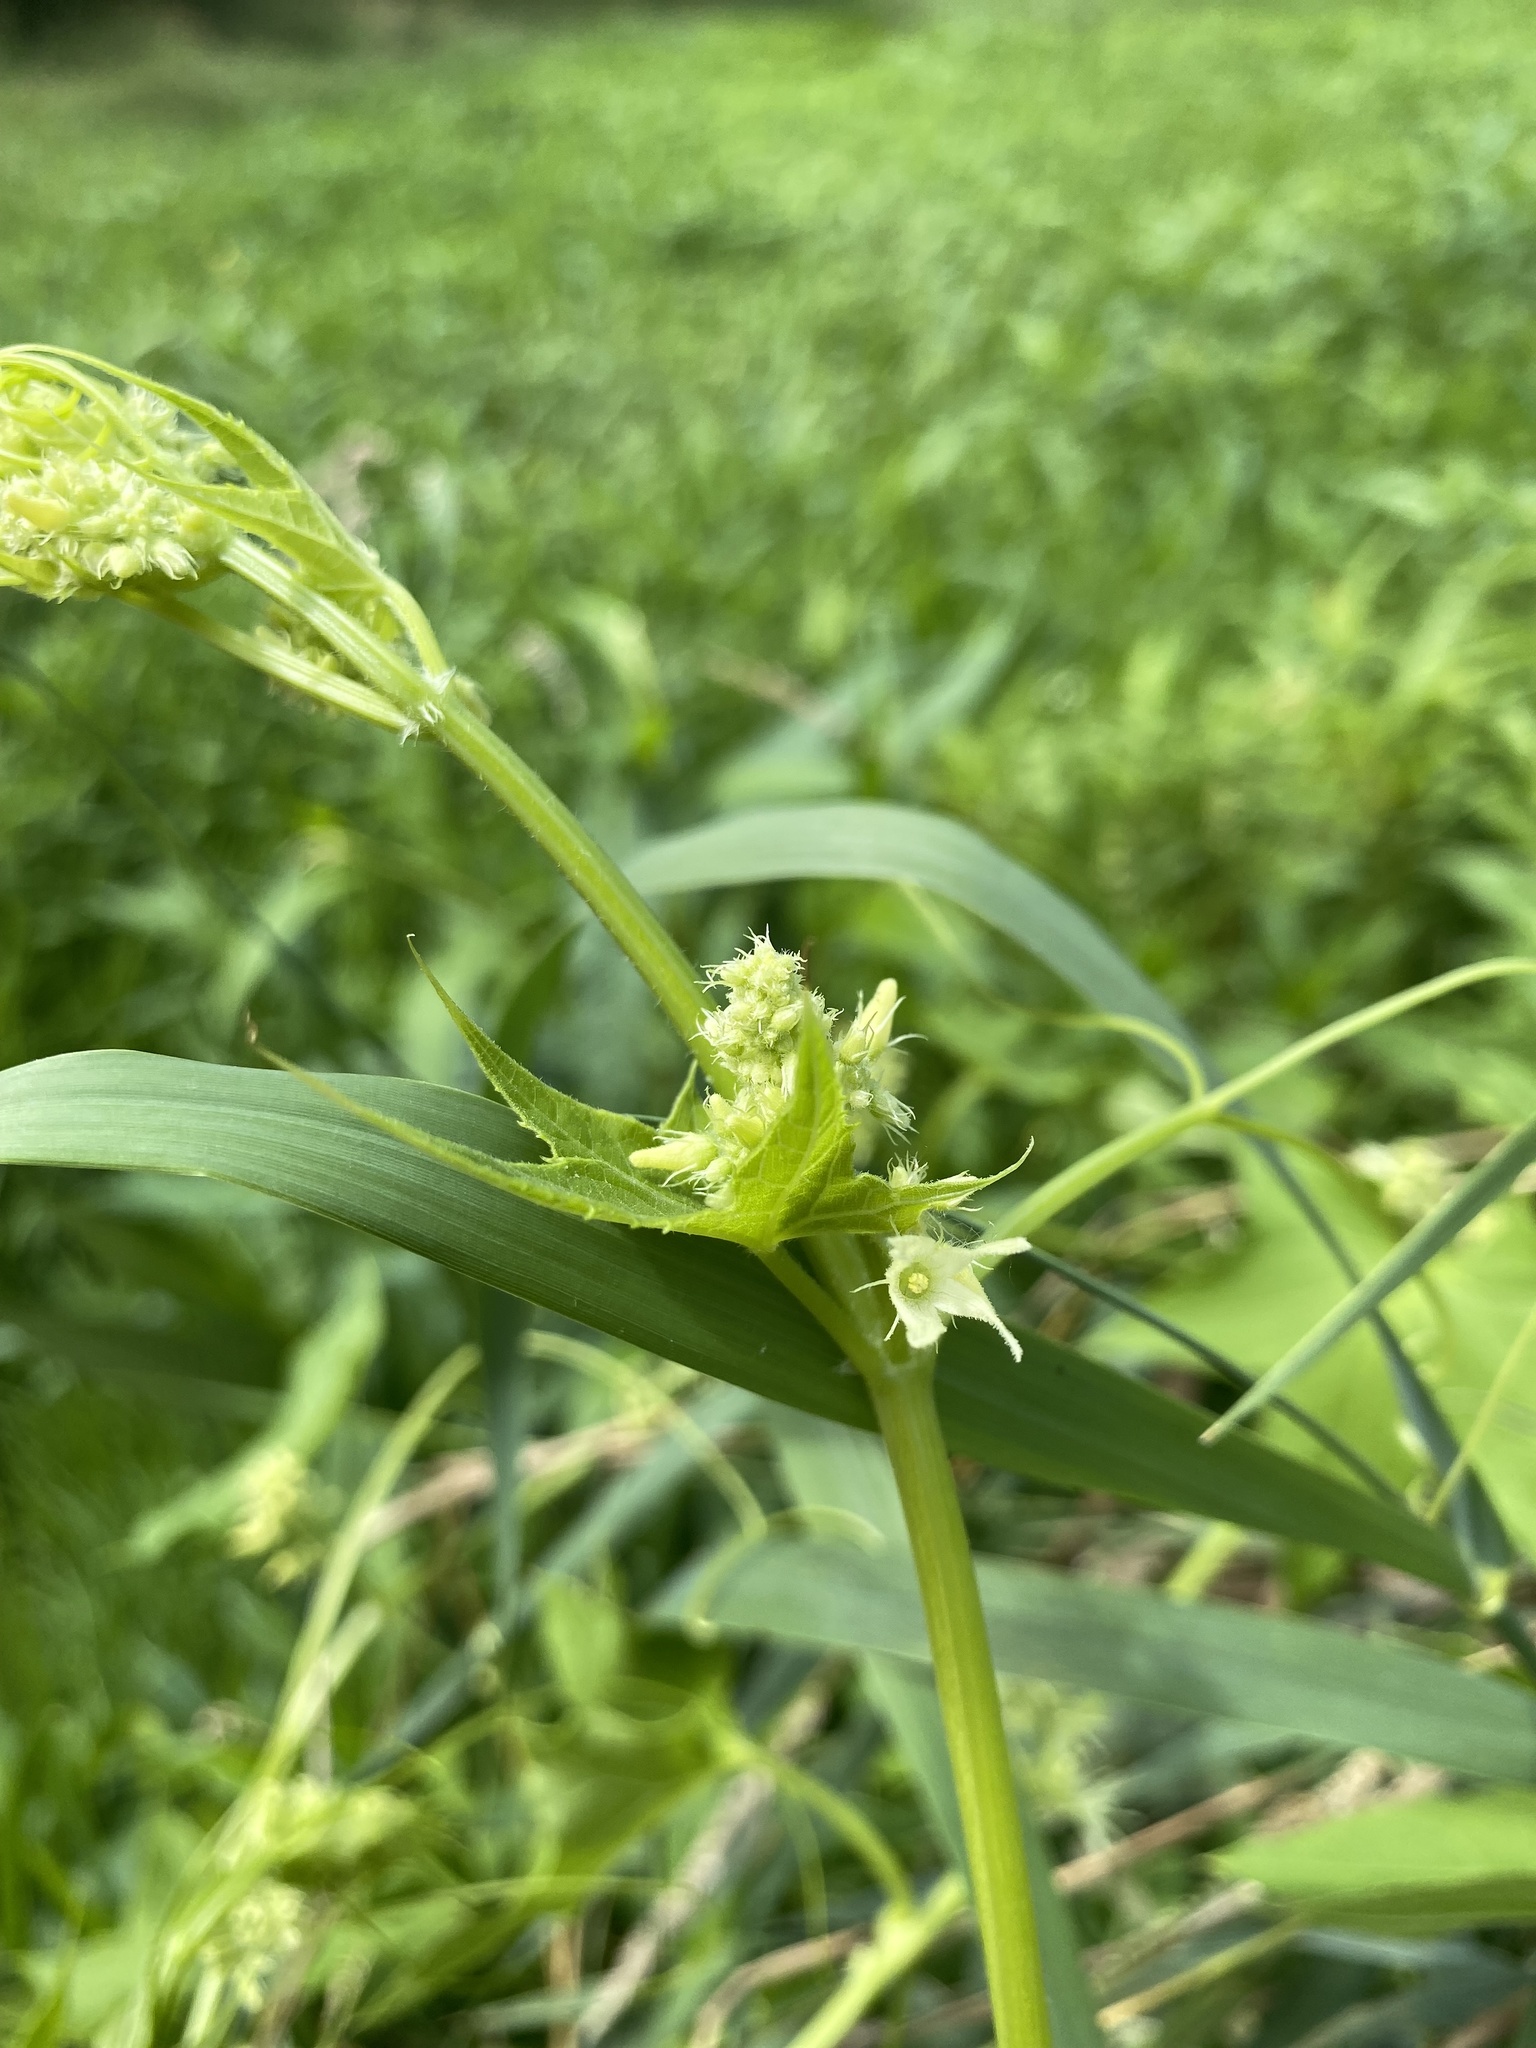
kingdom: Plantae
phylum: Tracheophyta
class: Magnoliopsida
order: Cucurbitales
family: Cucurbitaceae
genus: Echinocystis
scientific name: Echinocystis lobata
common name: Wild cucumber
